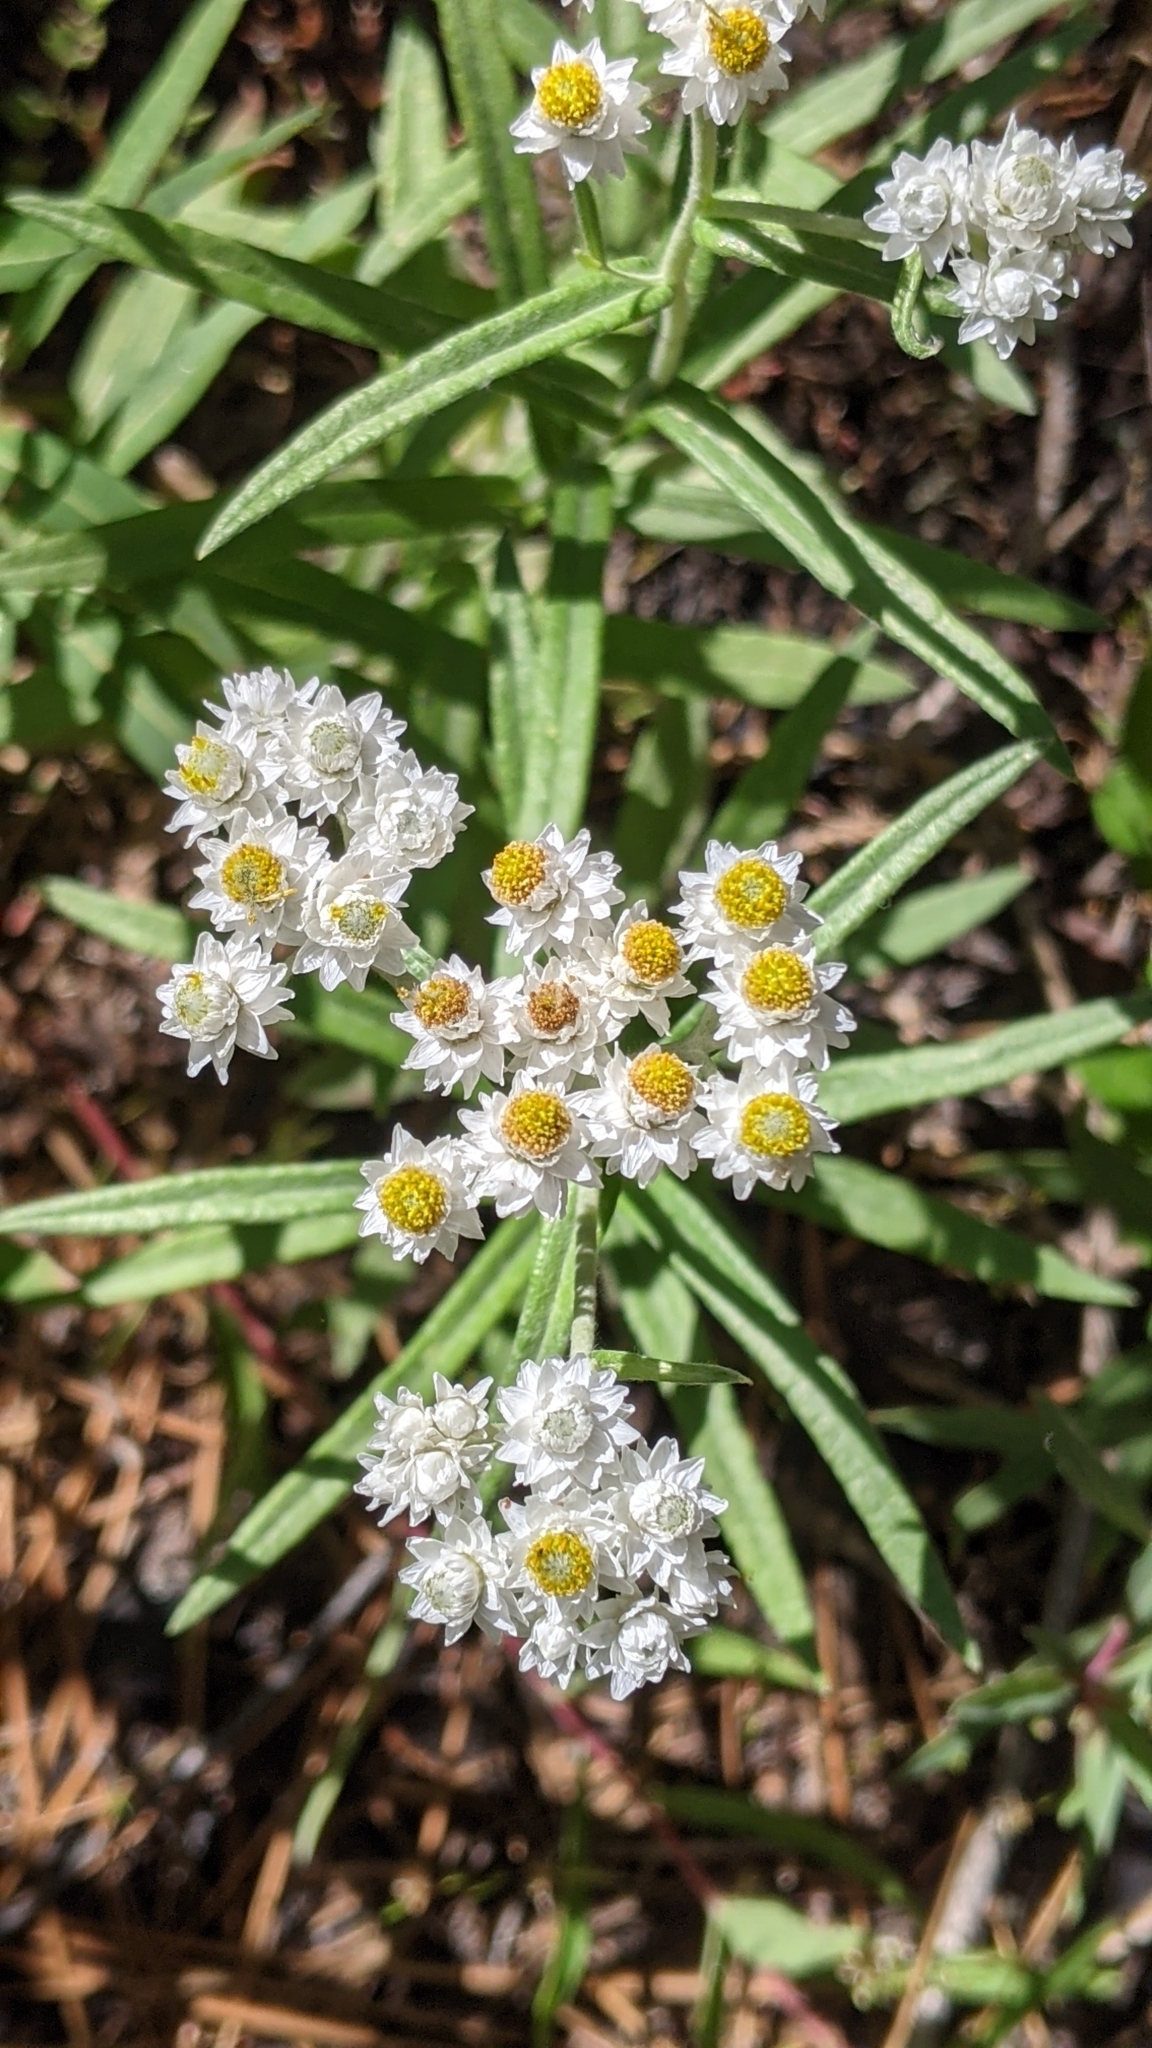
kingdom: Plantae
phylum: Tracheophyta
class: Magnoliopsida
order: Asterales
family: Asteraceae
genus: Anaphalis
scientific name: Anaphalis margaritacea
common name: Pearly everlasting
